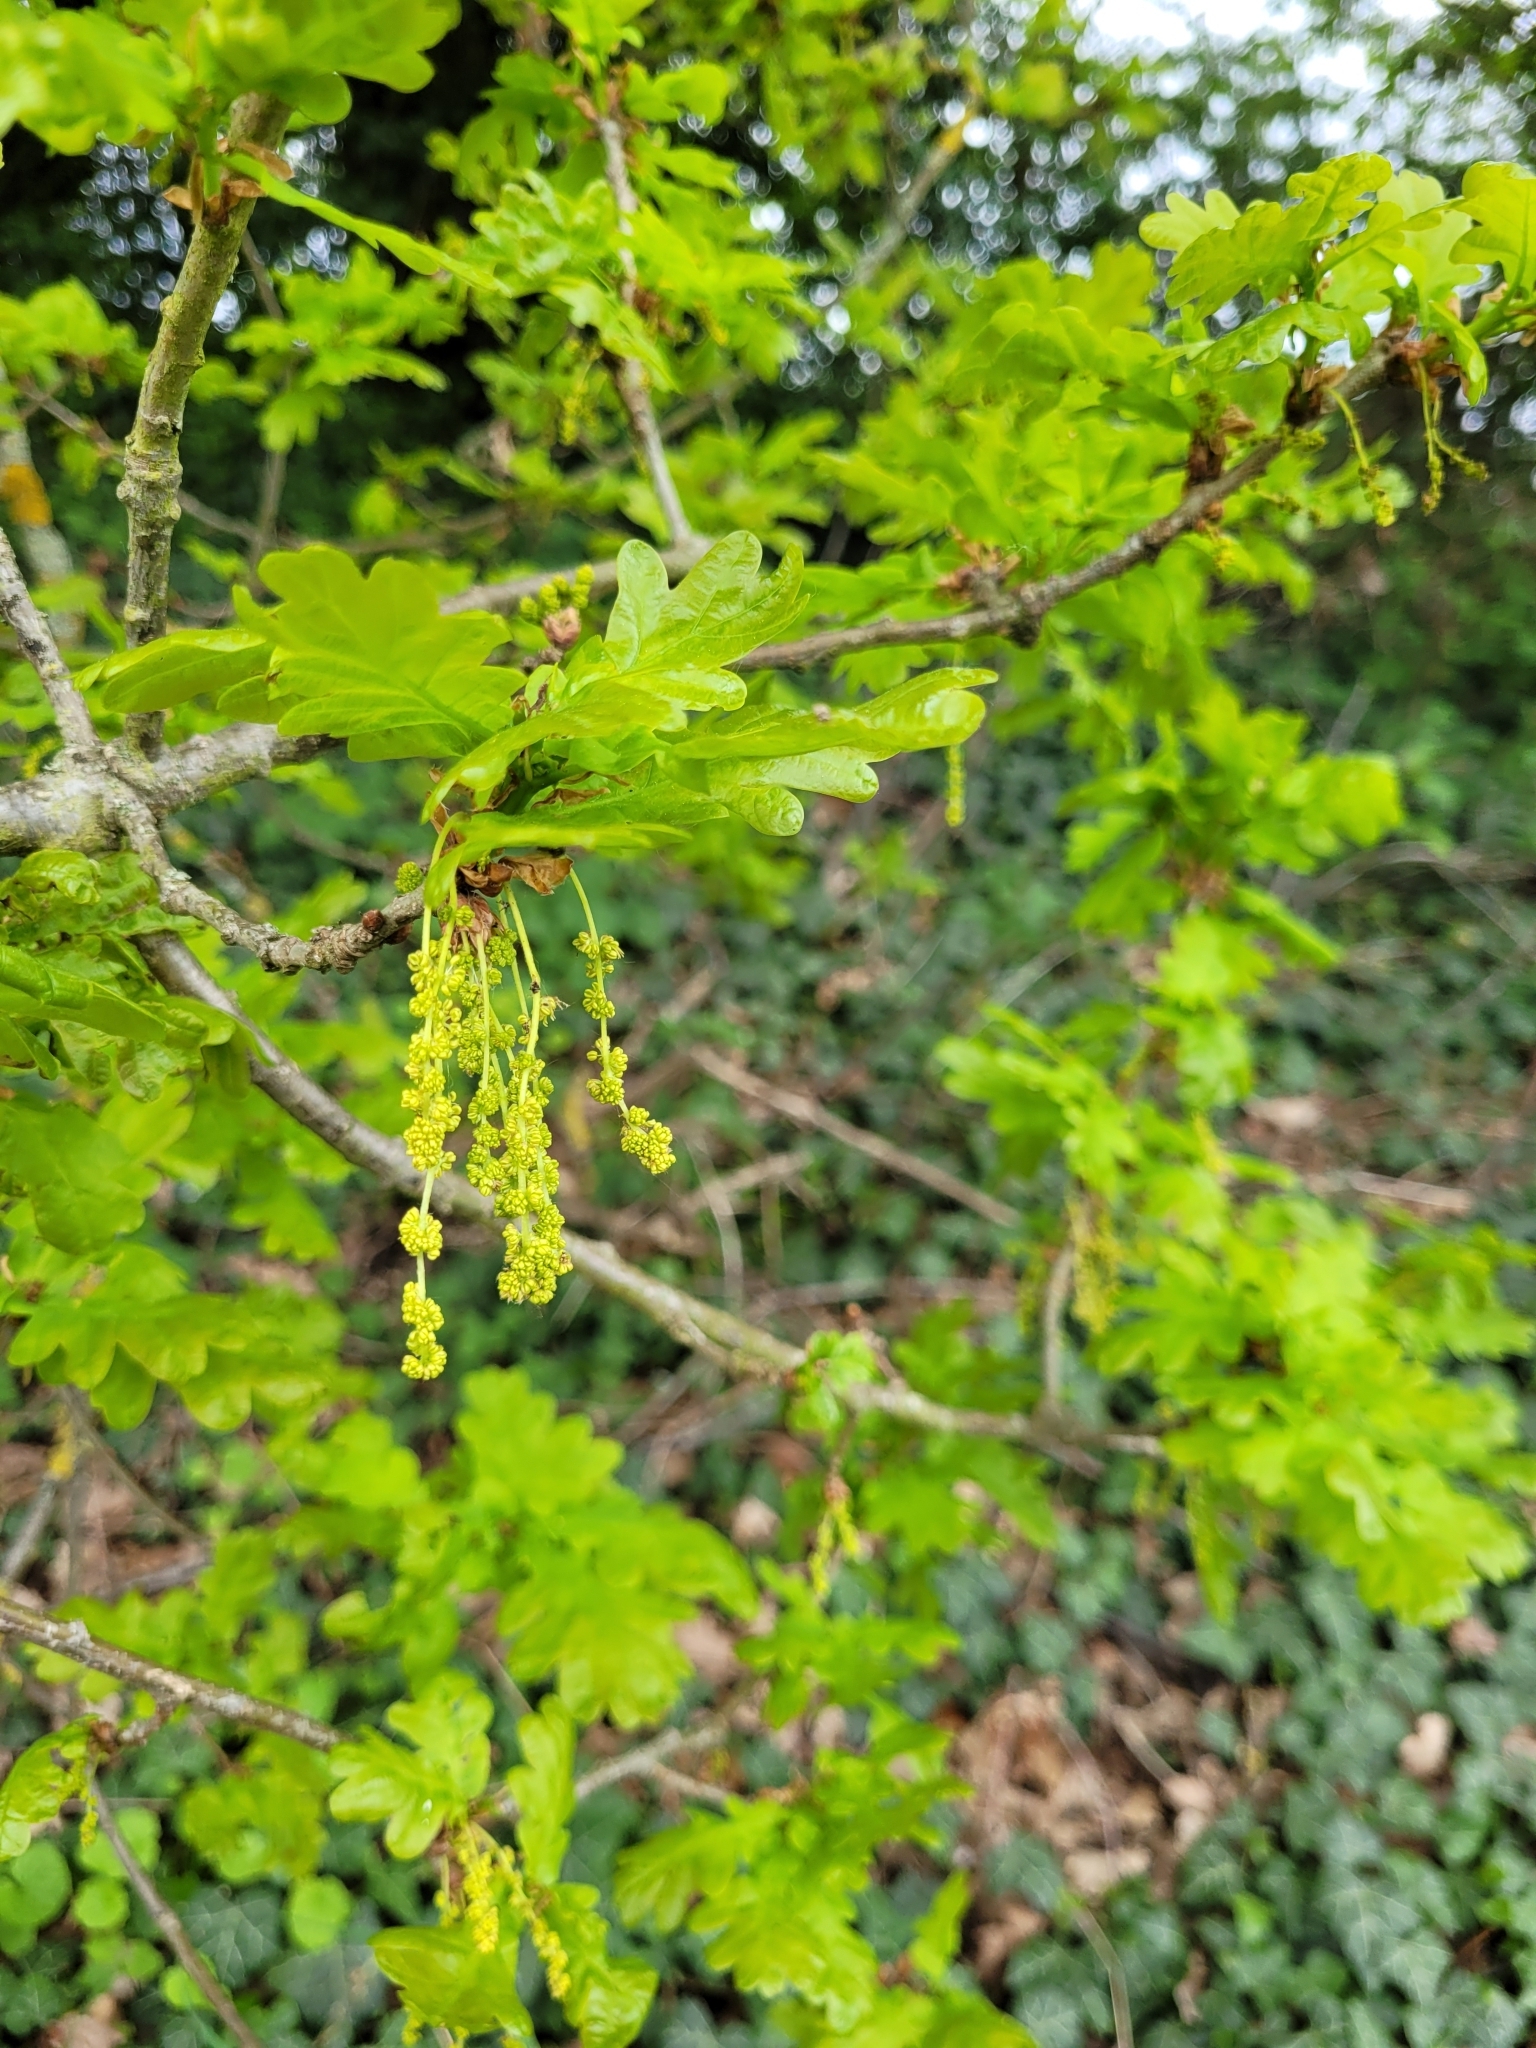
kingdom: Plantae
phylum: Tracheophyta
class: Magnoliopsida
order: Fagales
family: Fagaceae
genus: Quercus
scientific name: Quercus robur
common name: Pedunculate oak
